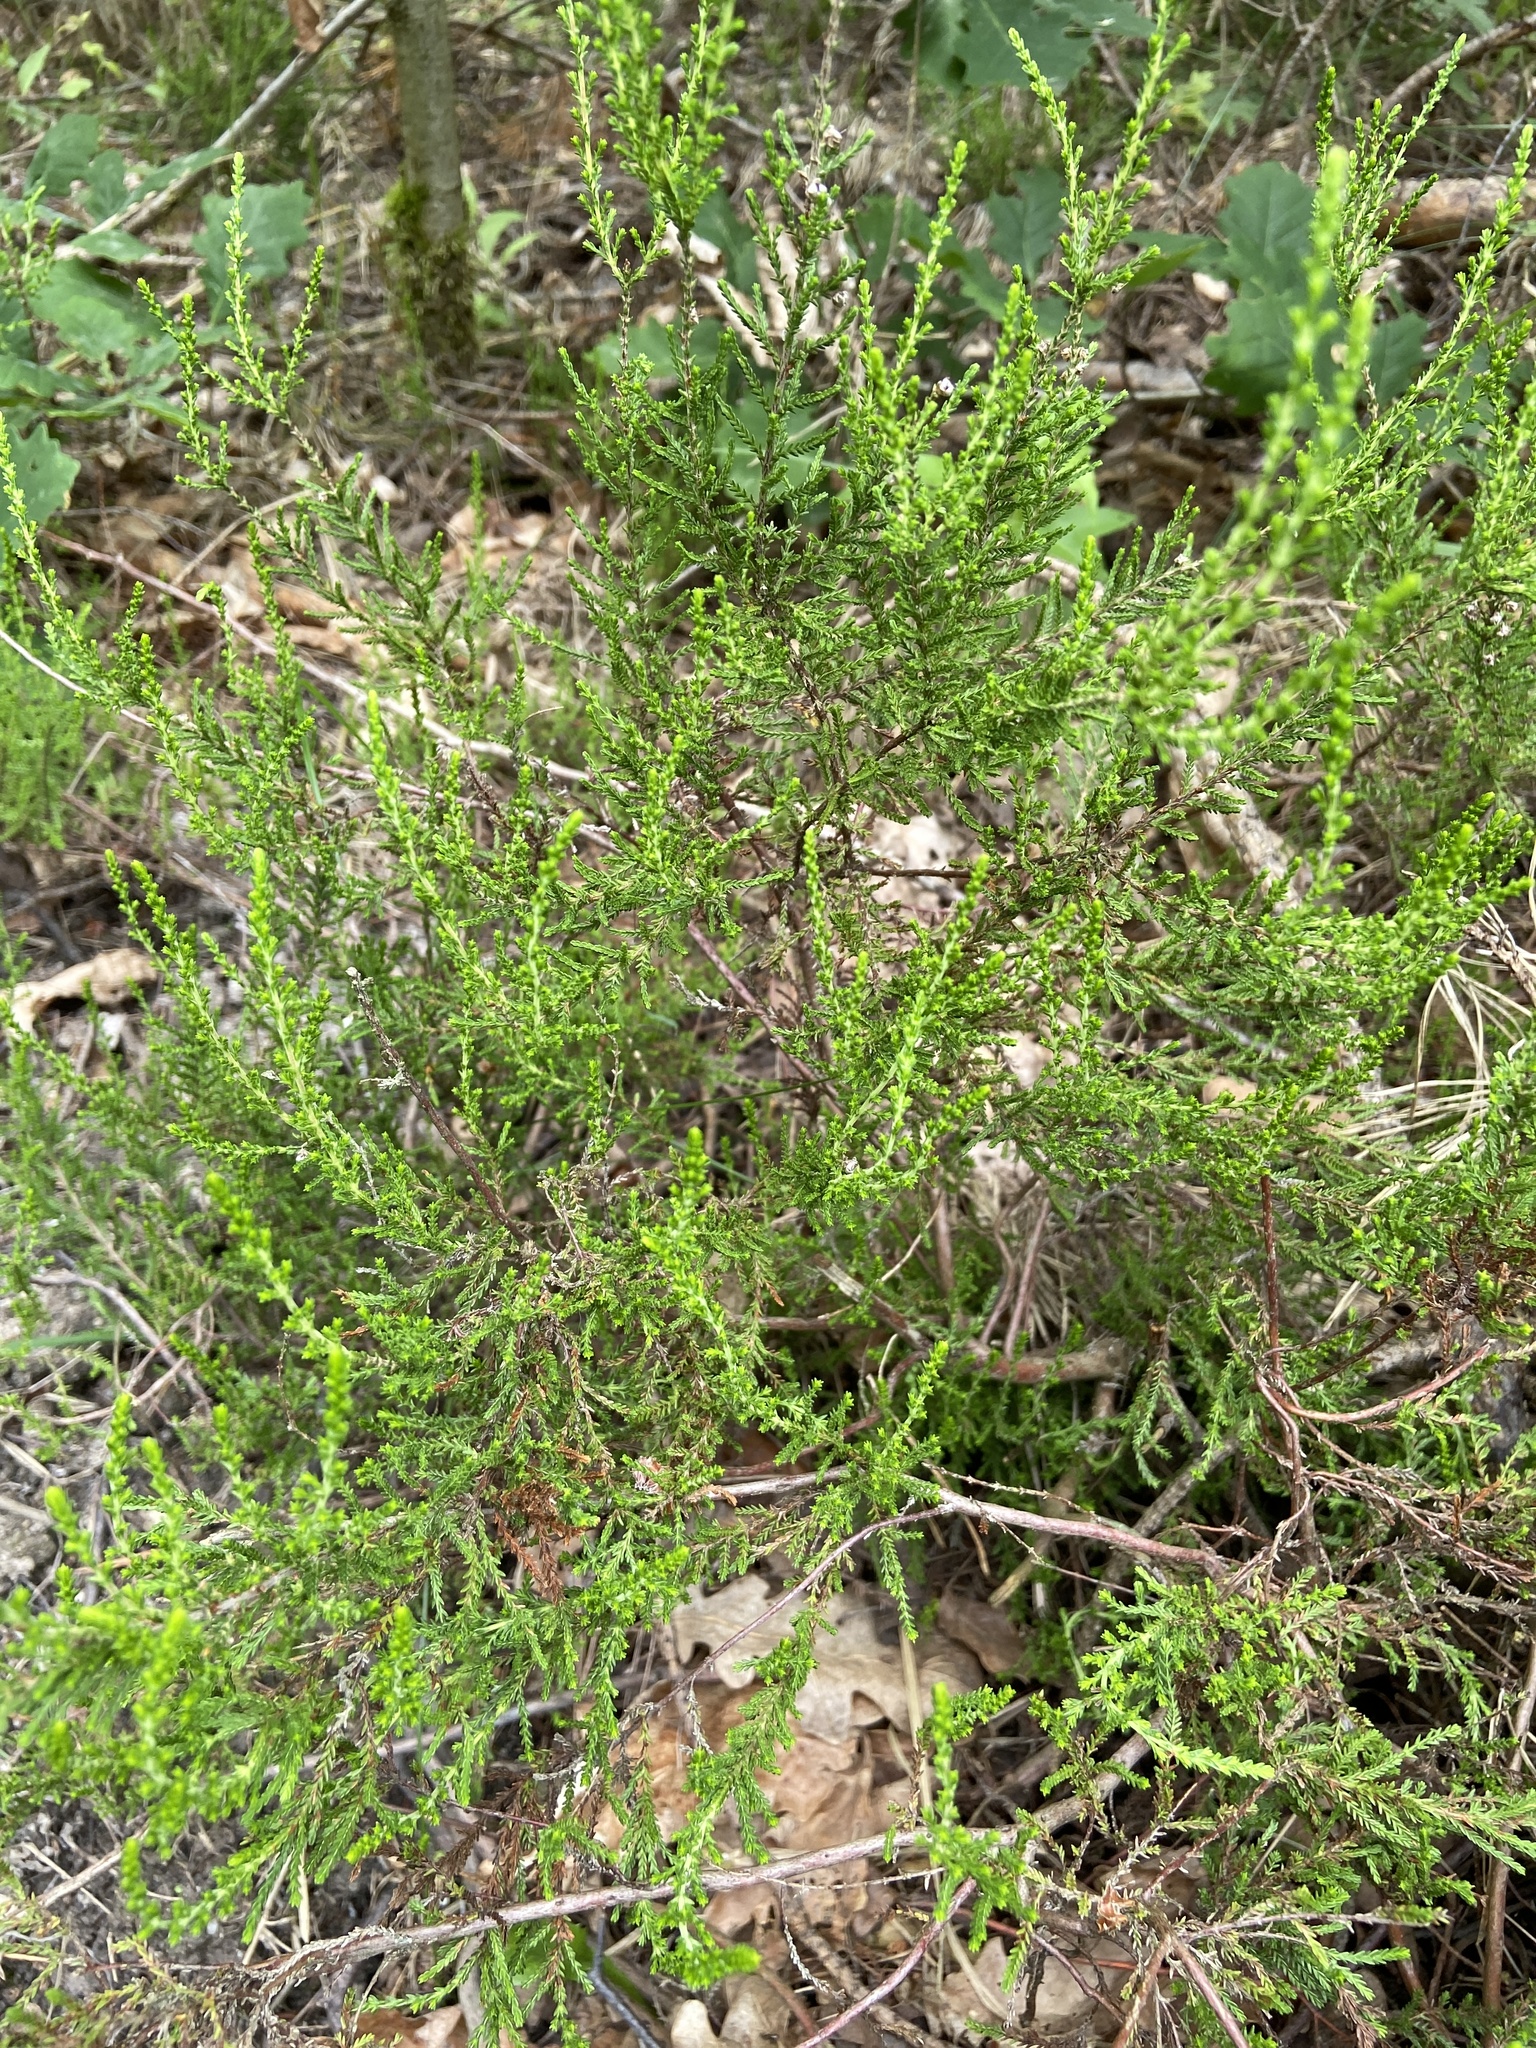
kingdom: Plantae
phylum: Tracheophyta
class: Magnoliopsida
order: Ericales
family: Ericaceae
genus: Calluna
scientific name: Calluna vulgaris
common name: Heather
